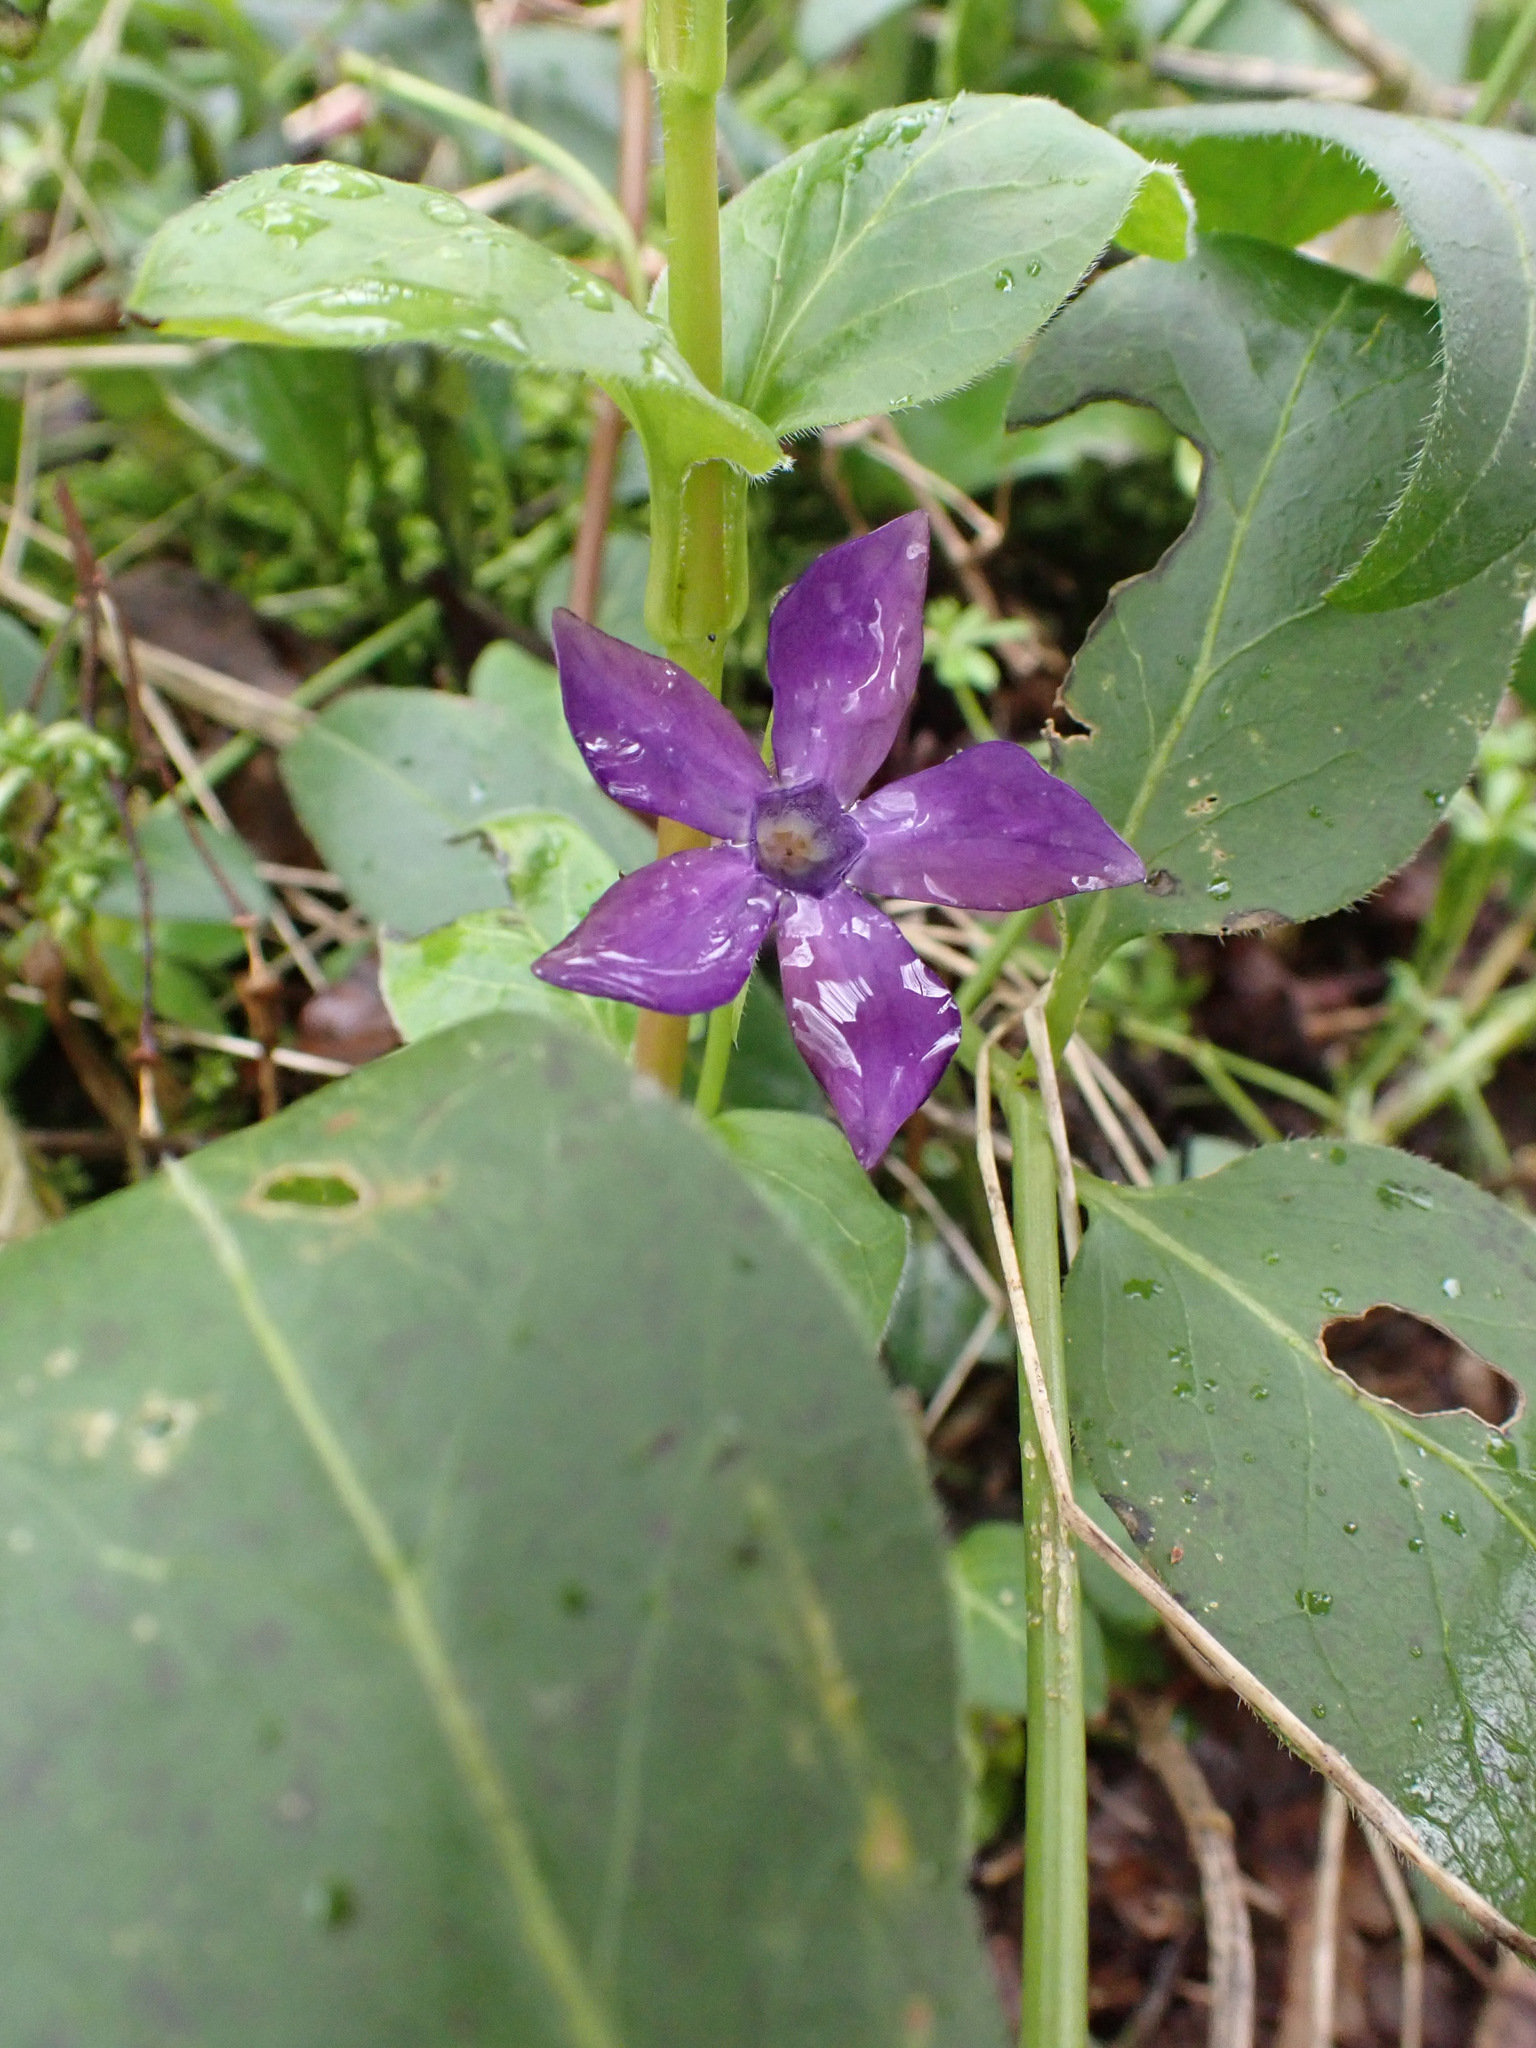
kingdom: Plantae
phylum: Tracheophyta
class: Magnoliopsida
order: Gentianales
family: Apocynaceae
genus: Vinca
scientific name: Vinca major
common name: Greater periwinkle
